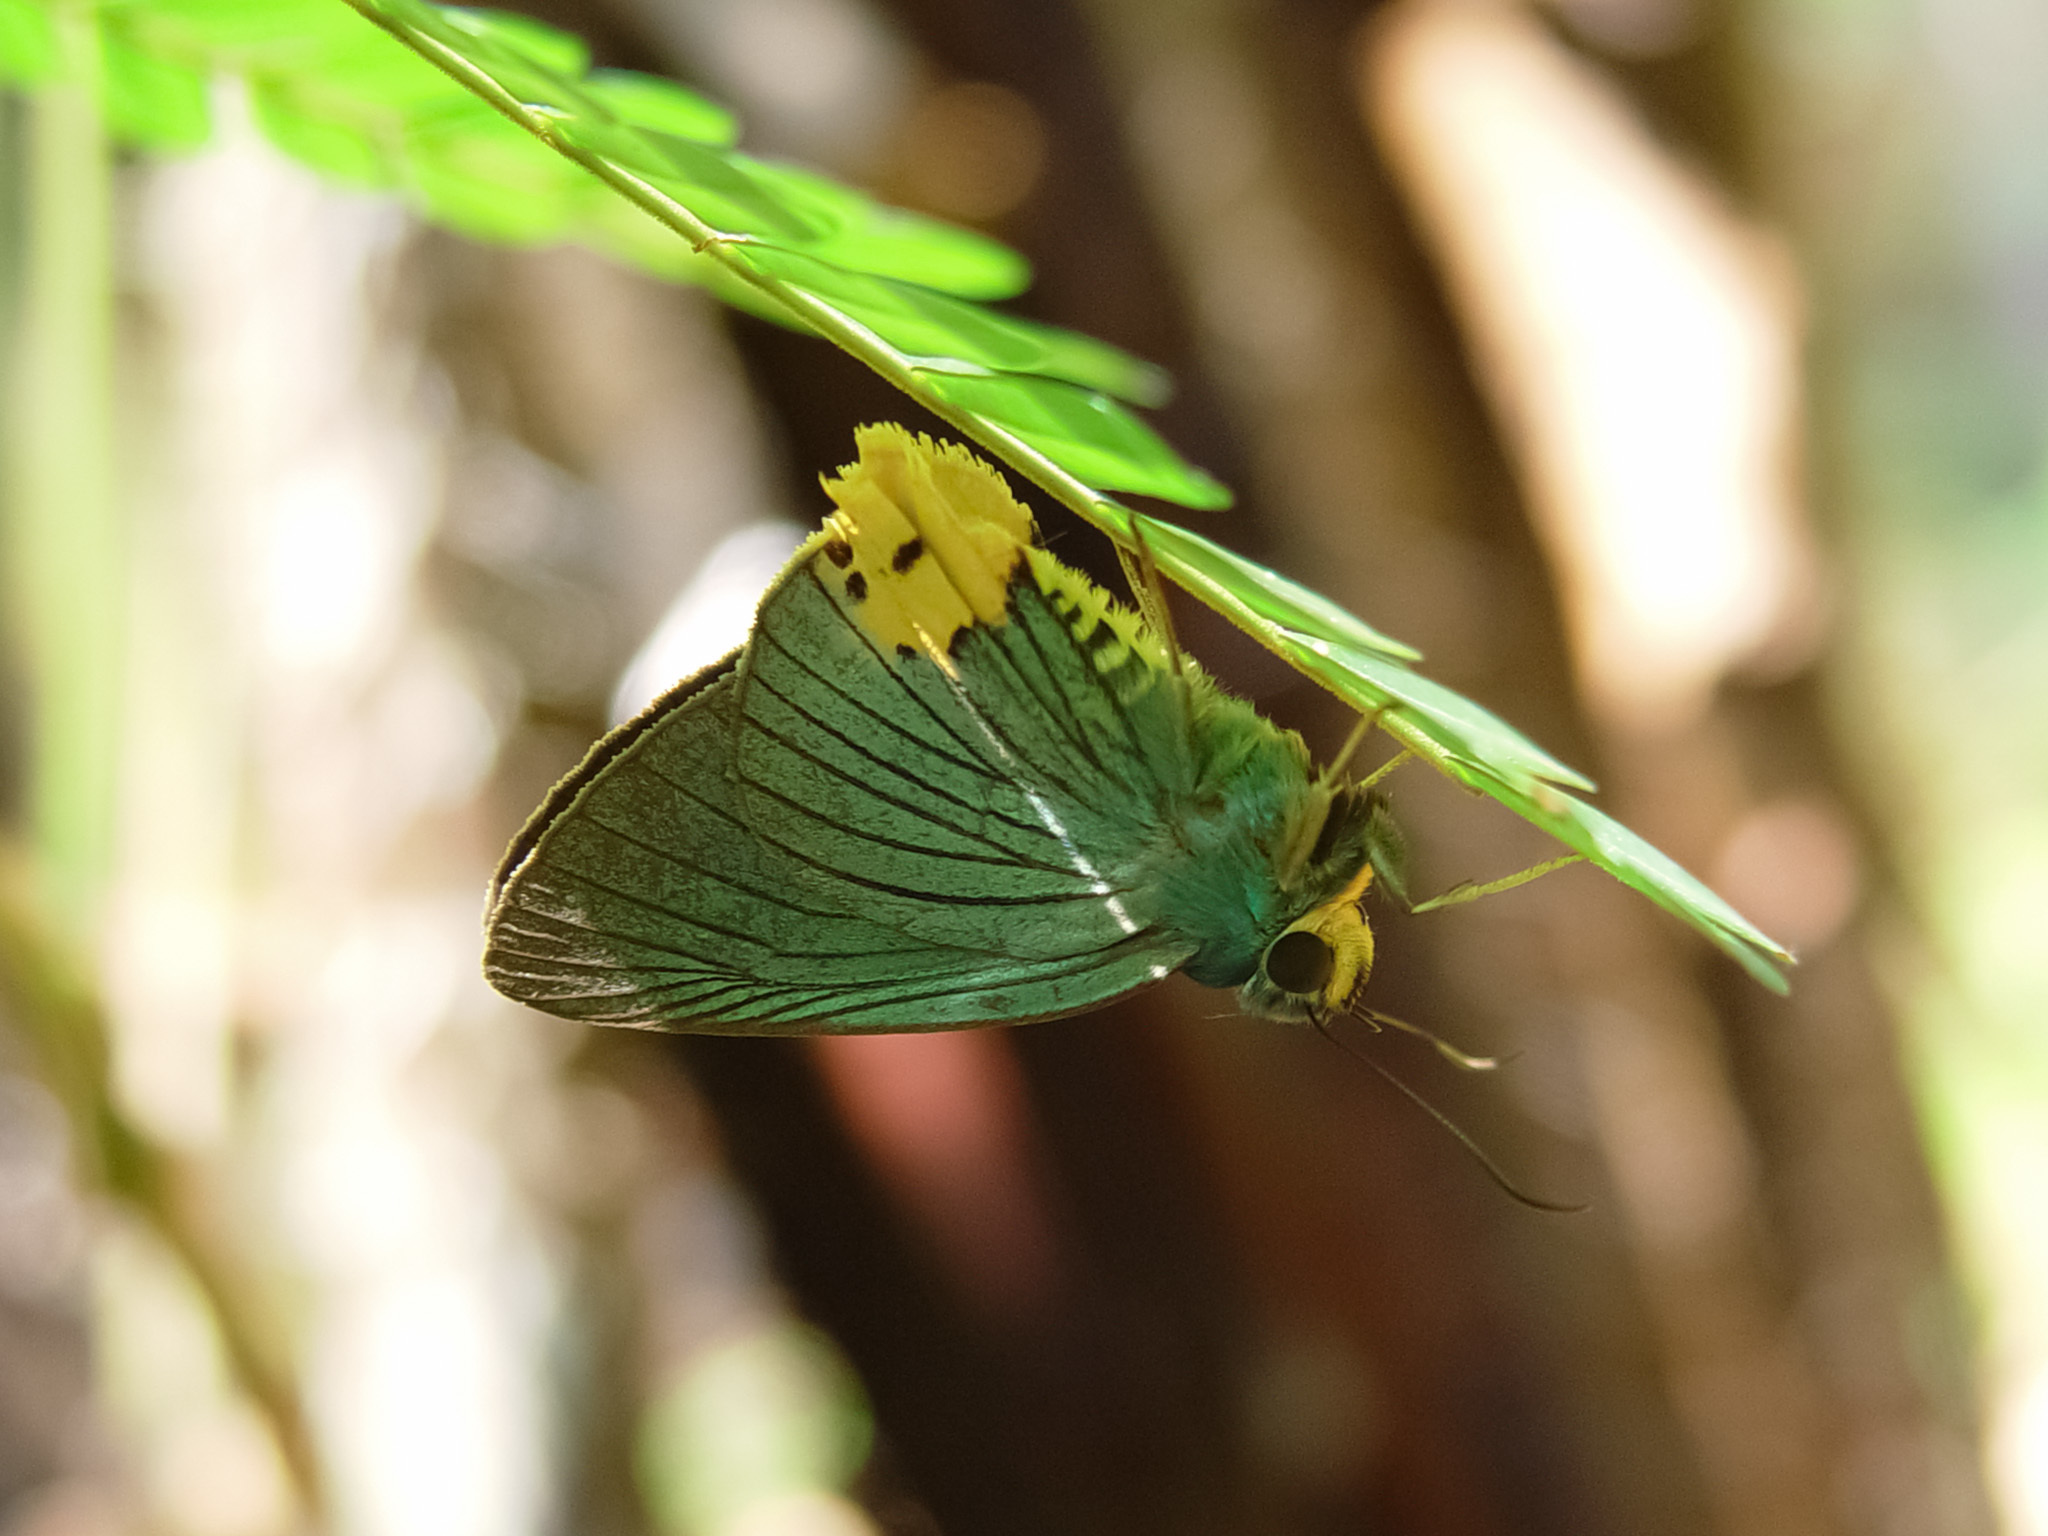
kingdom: Animalia
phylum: Arthropoda
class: Insecta
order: Lepidoptera
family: Hesperiidae
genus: Choaspes
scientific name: Choaspes benjaminii
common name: Indian awlking
